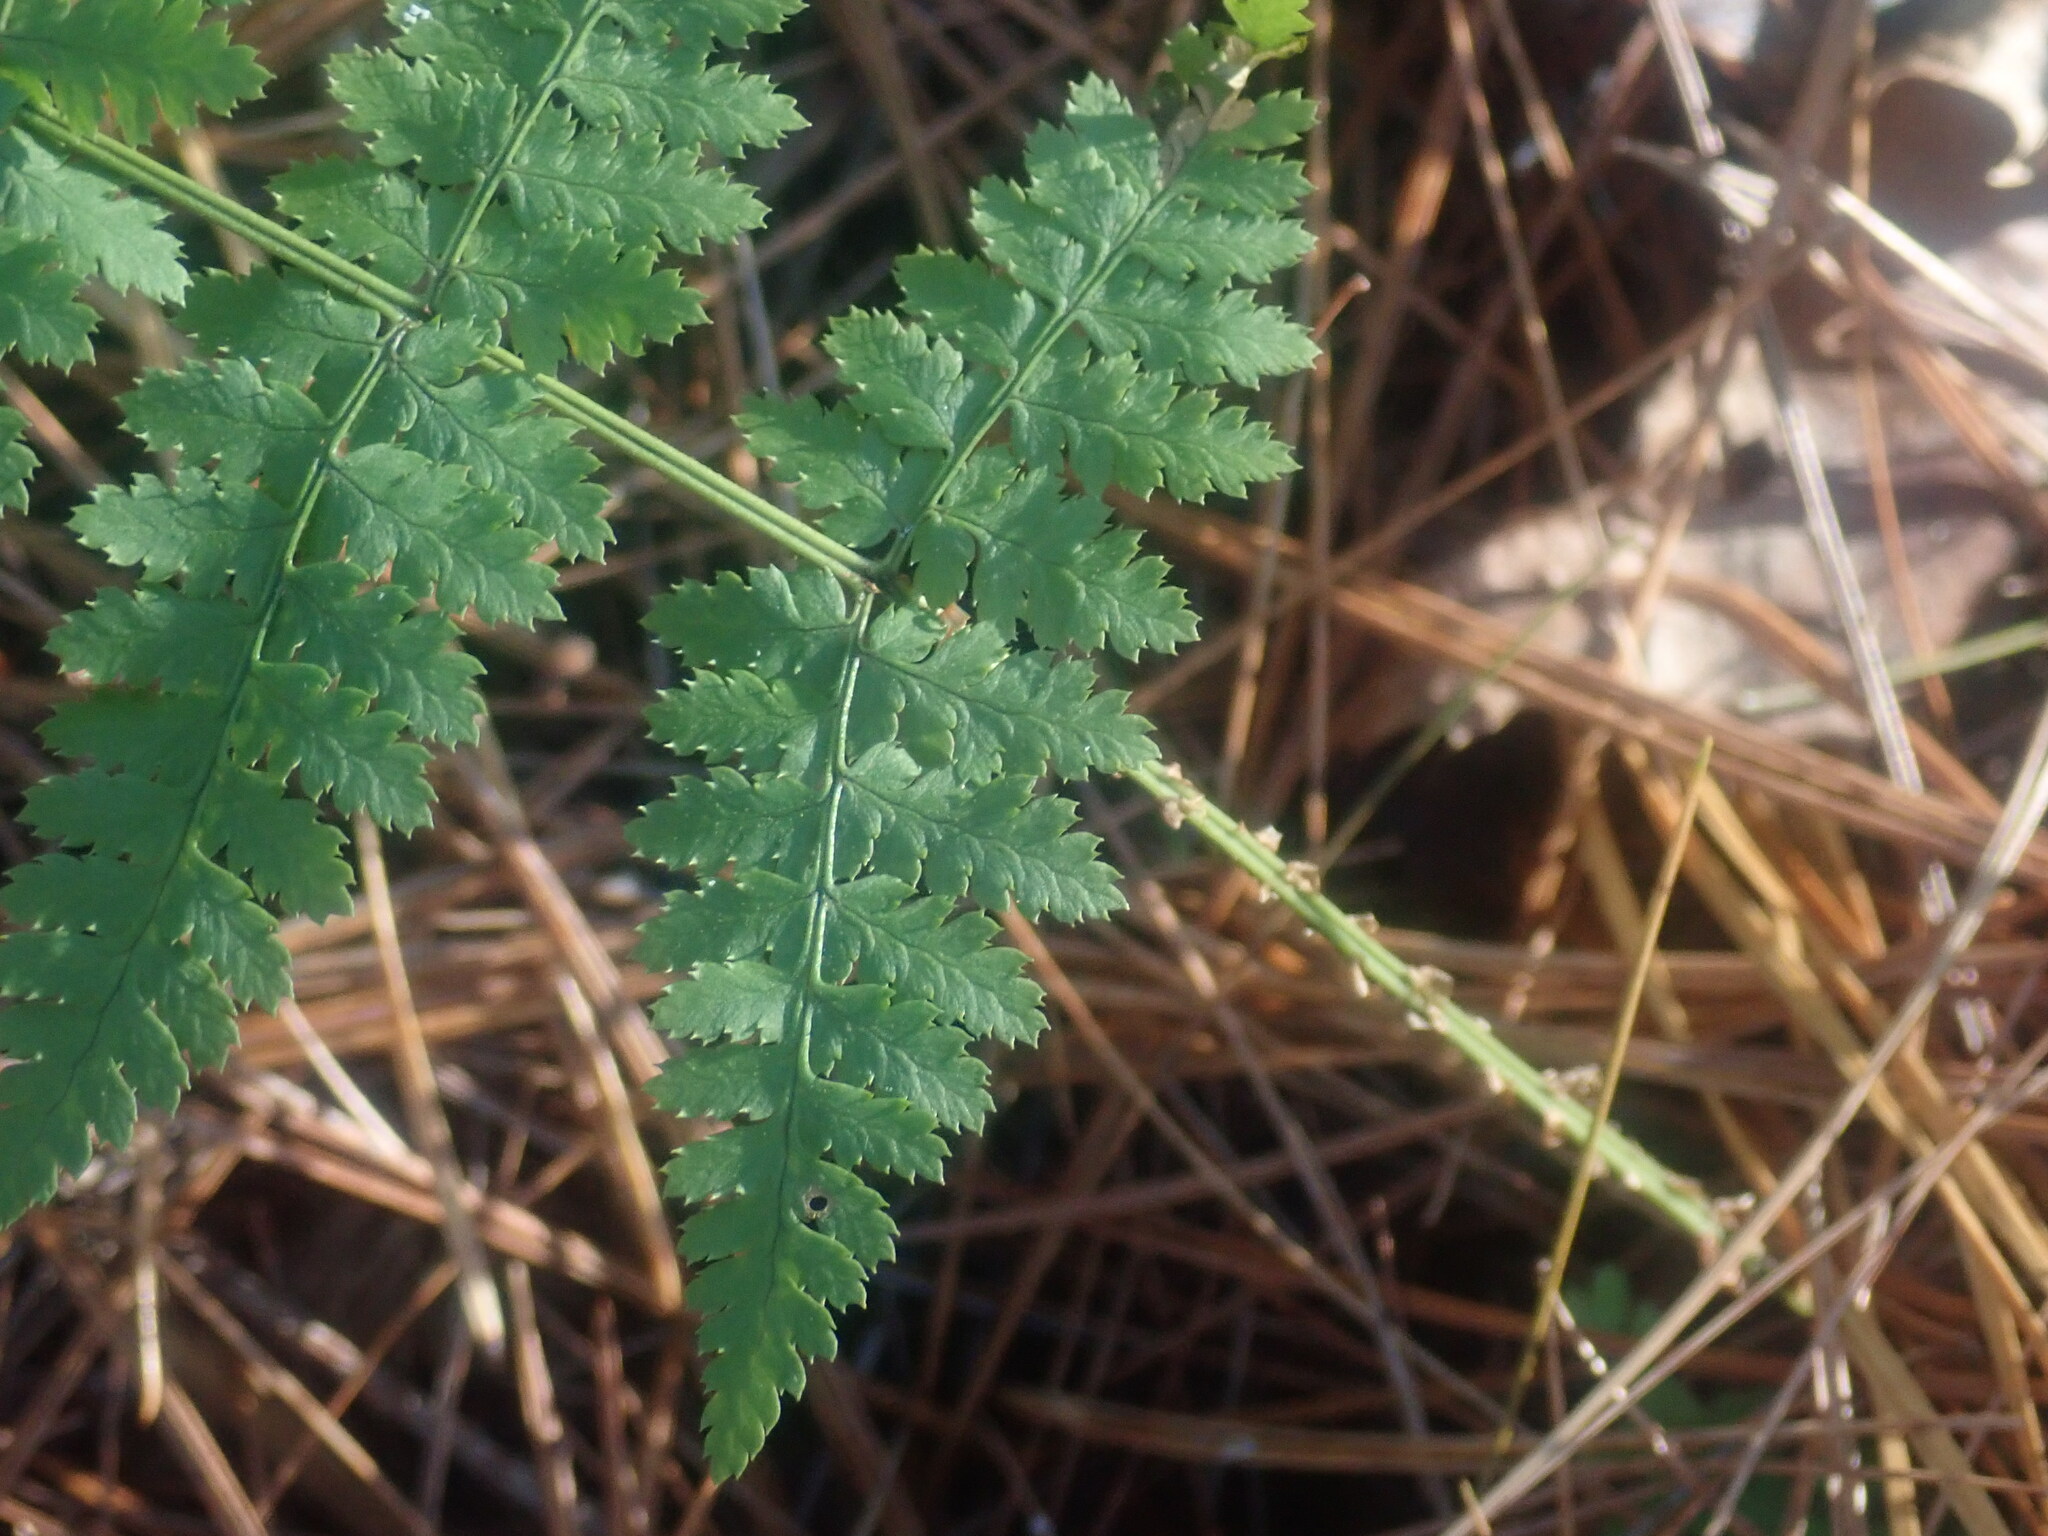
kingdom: Plantae
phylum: Tracheophyta
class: Polypodiopsida
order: Polypodiales
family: Dryopteridaceae
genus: Dryopteris
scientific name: Dryopteris intermedia
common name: Evergreen wood fern
